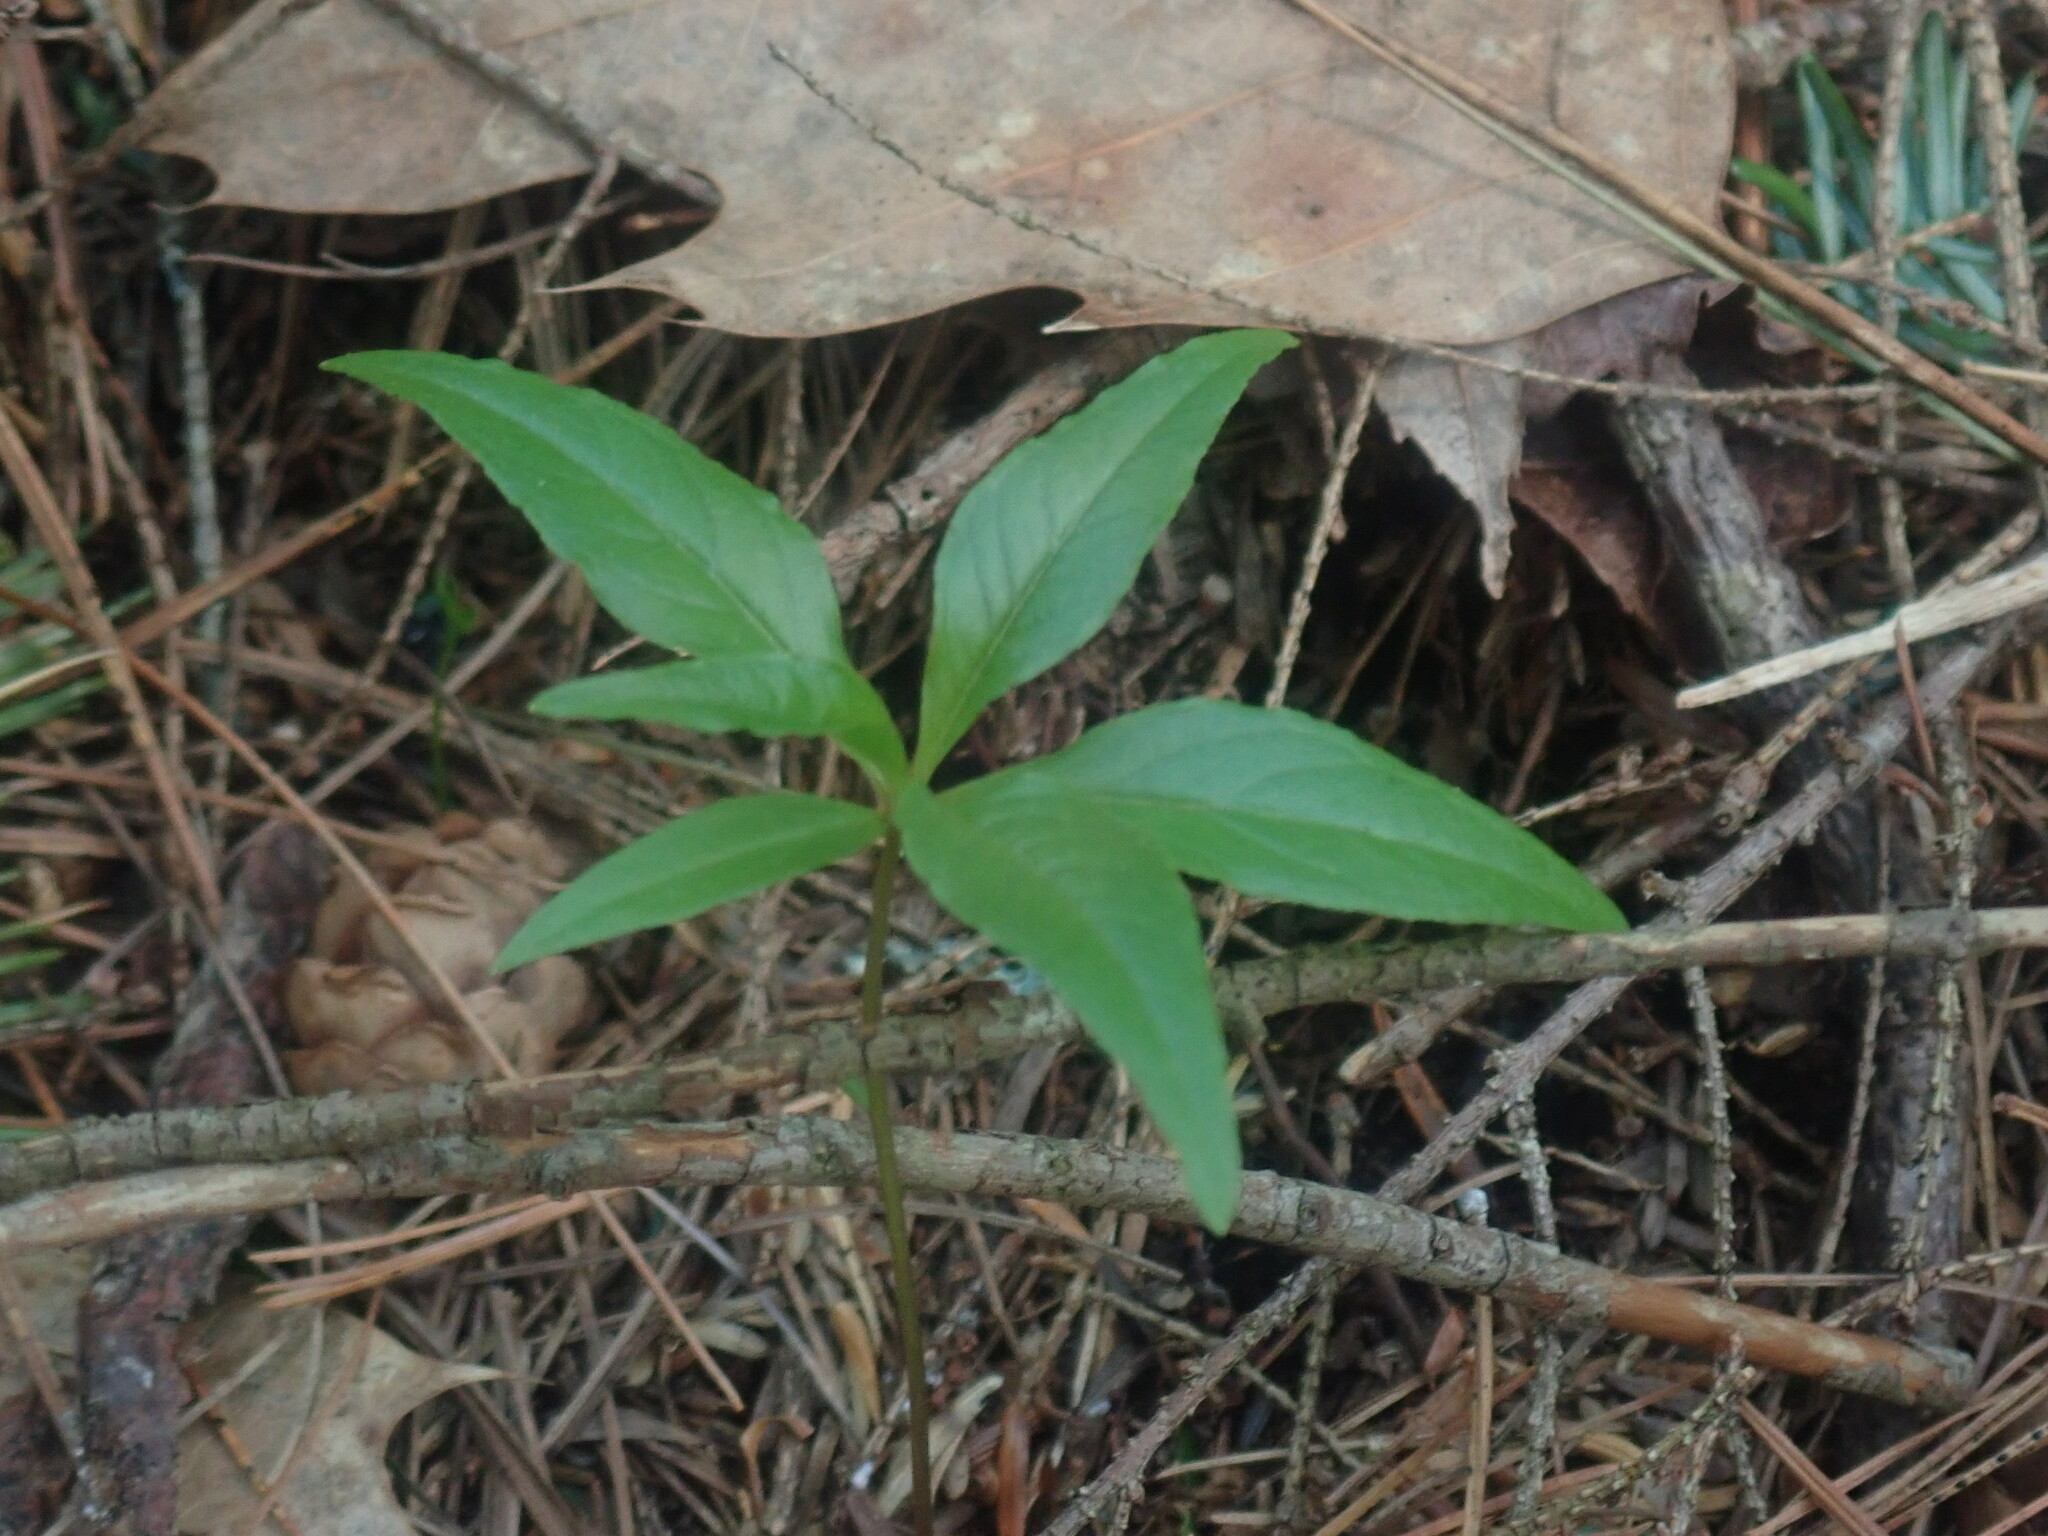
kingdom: Plantae
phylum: Tracheophyta
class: Magnoliopsida
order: Ericales
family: Primulaceae
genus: Lysimachia
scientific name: Lysimachia borealis
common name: American starflower
